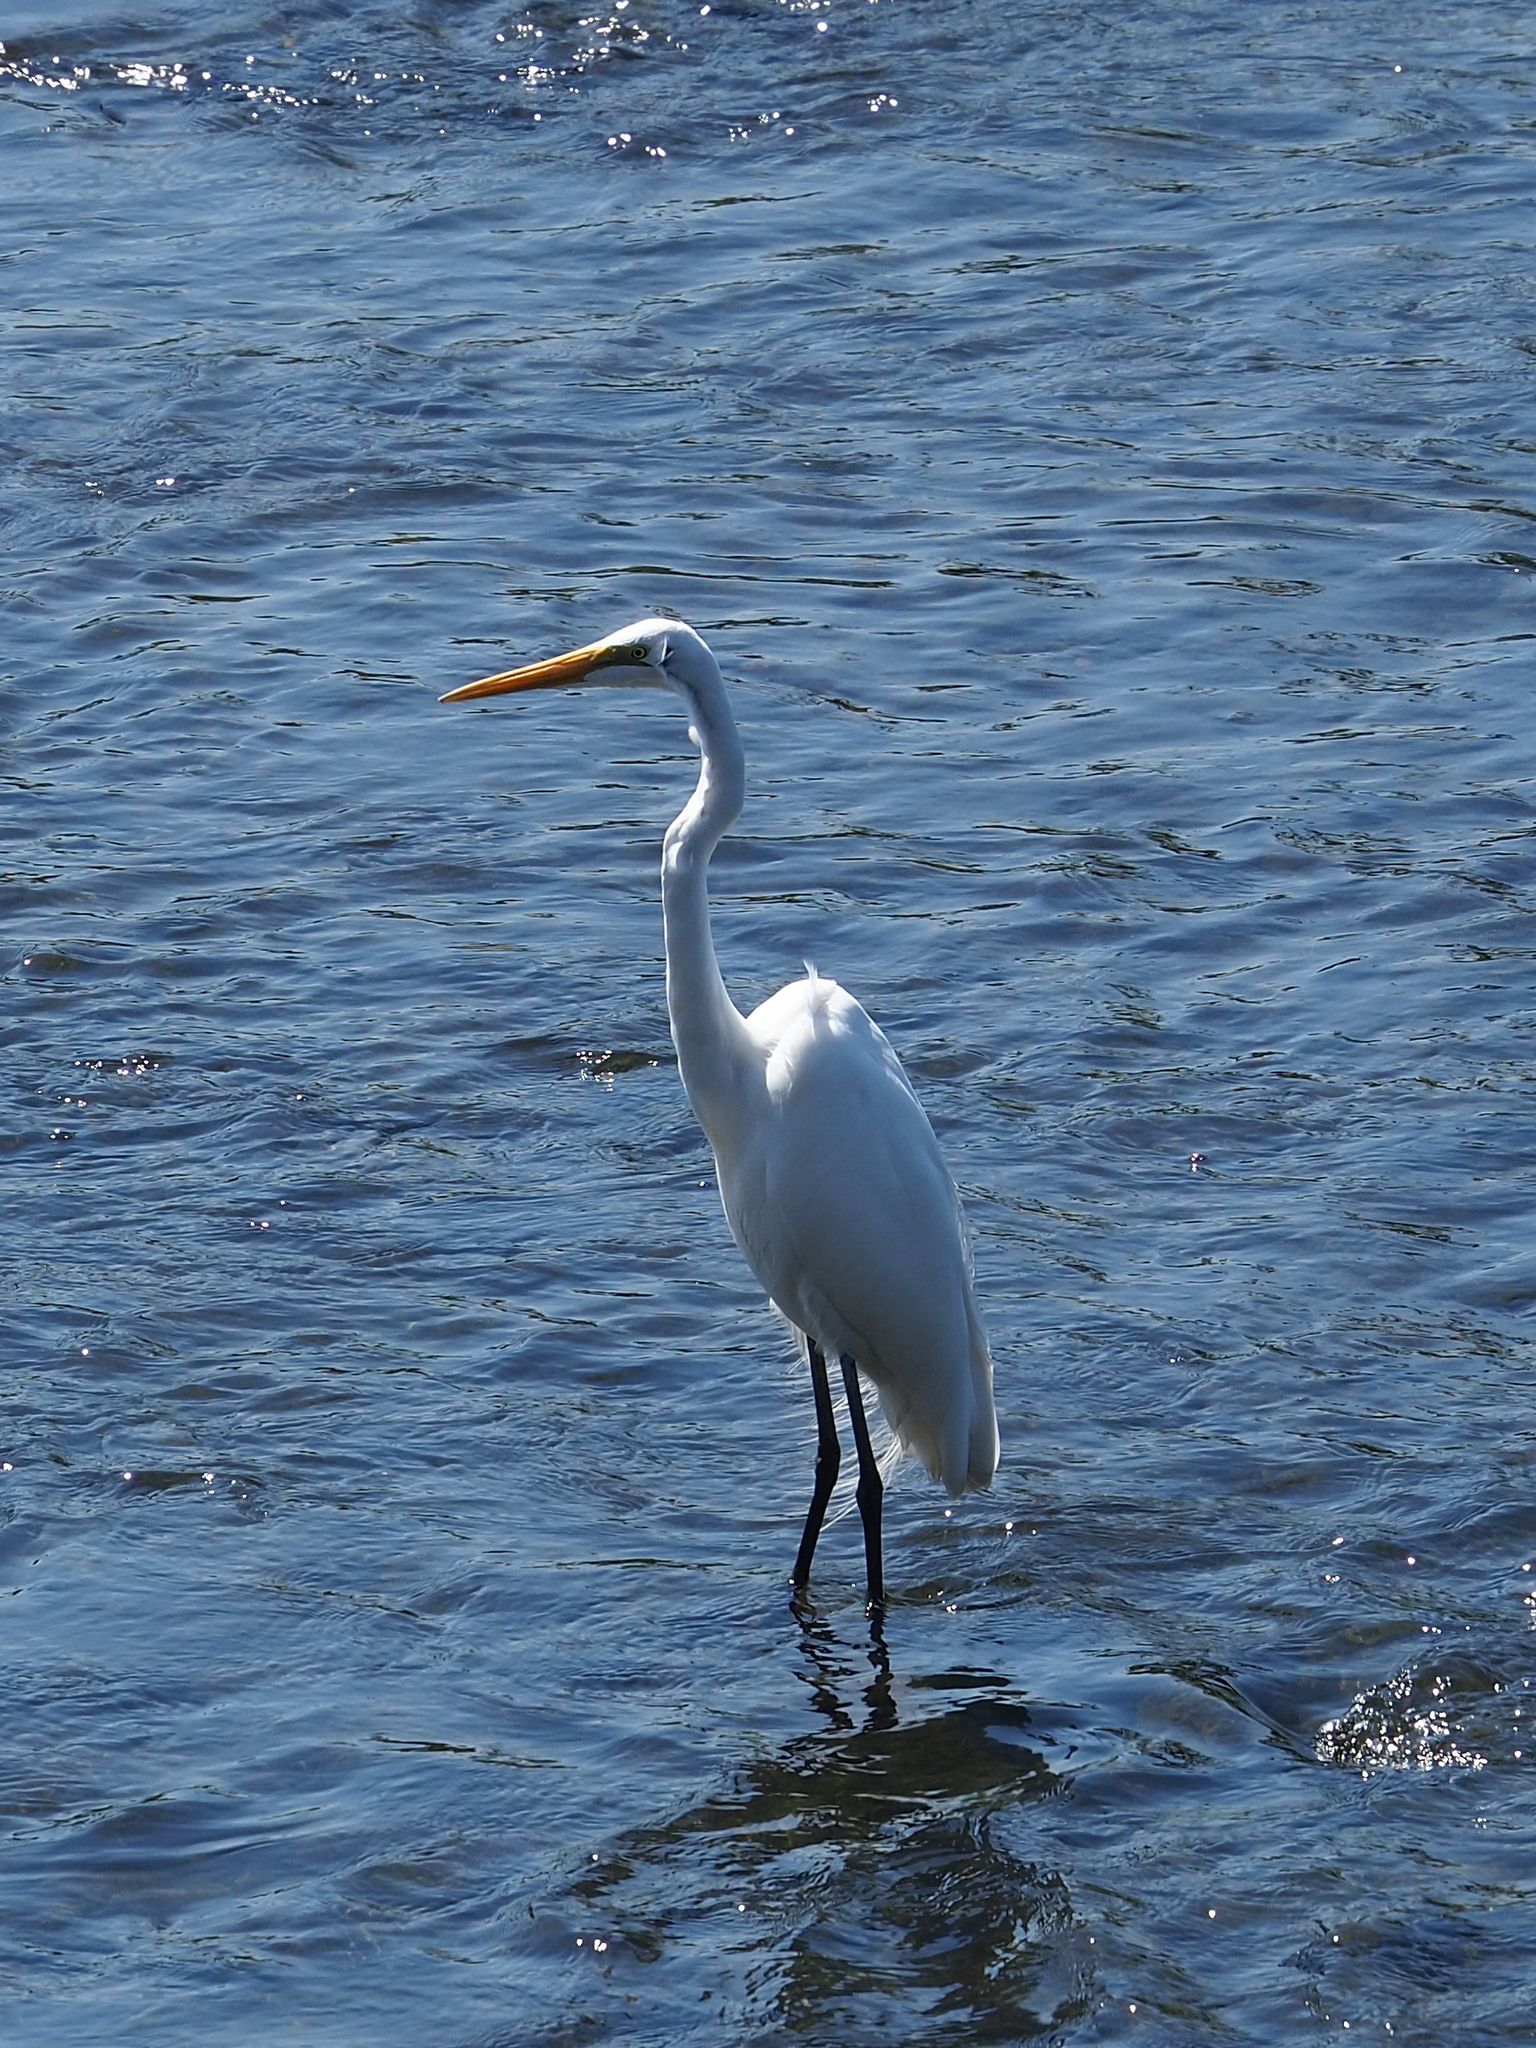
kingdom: Animalia
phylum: Chordata
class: Aves
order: Pelecaniformes
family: Ardeidae
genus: Ardea
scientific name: Ardea alba
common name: Great egret
